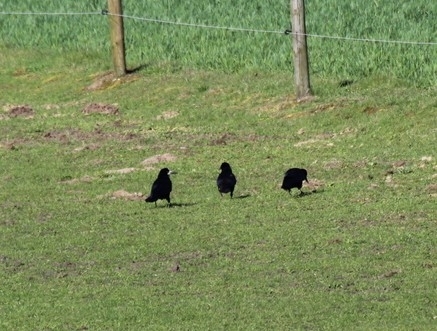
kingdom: Animalia
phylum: Chordata
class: Aves
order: Passeriformes
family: Corvidae
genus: Corvus
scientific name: Corvus frugilegus
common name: Rook
